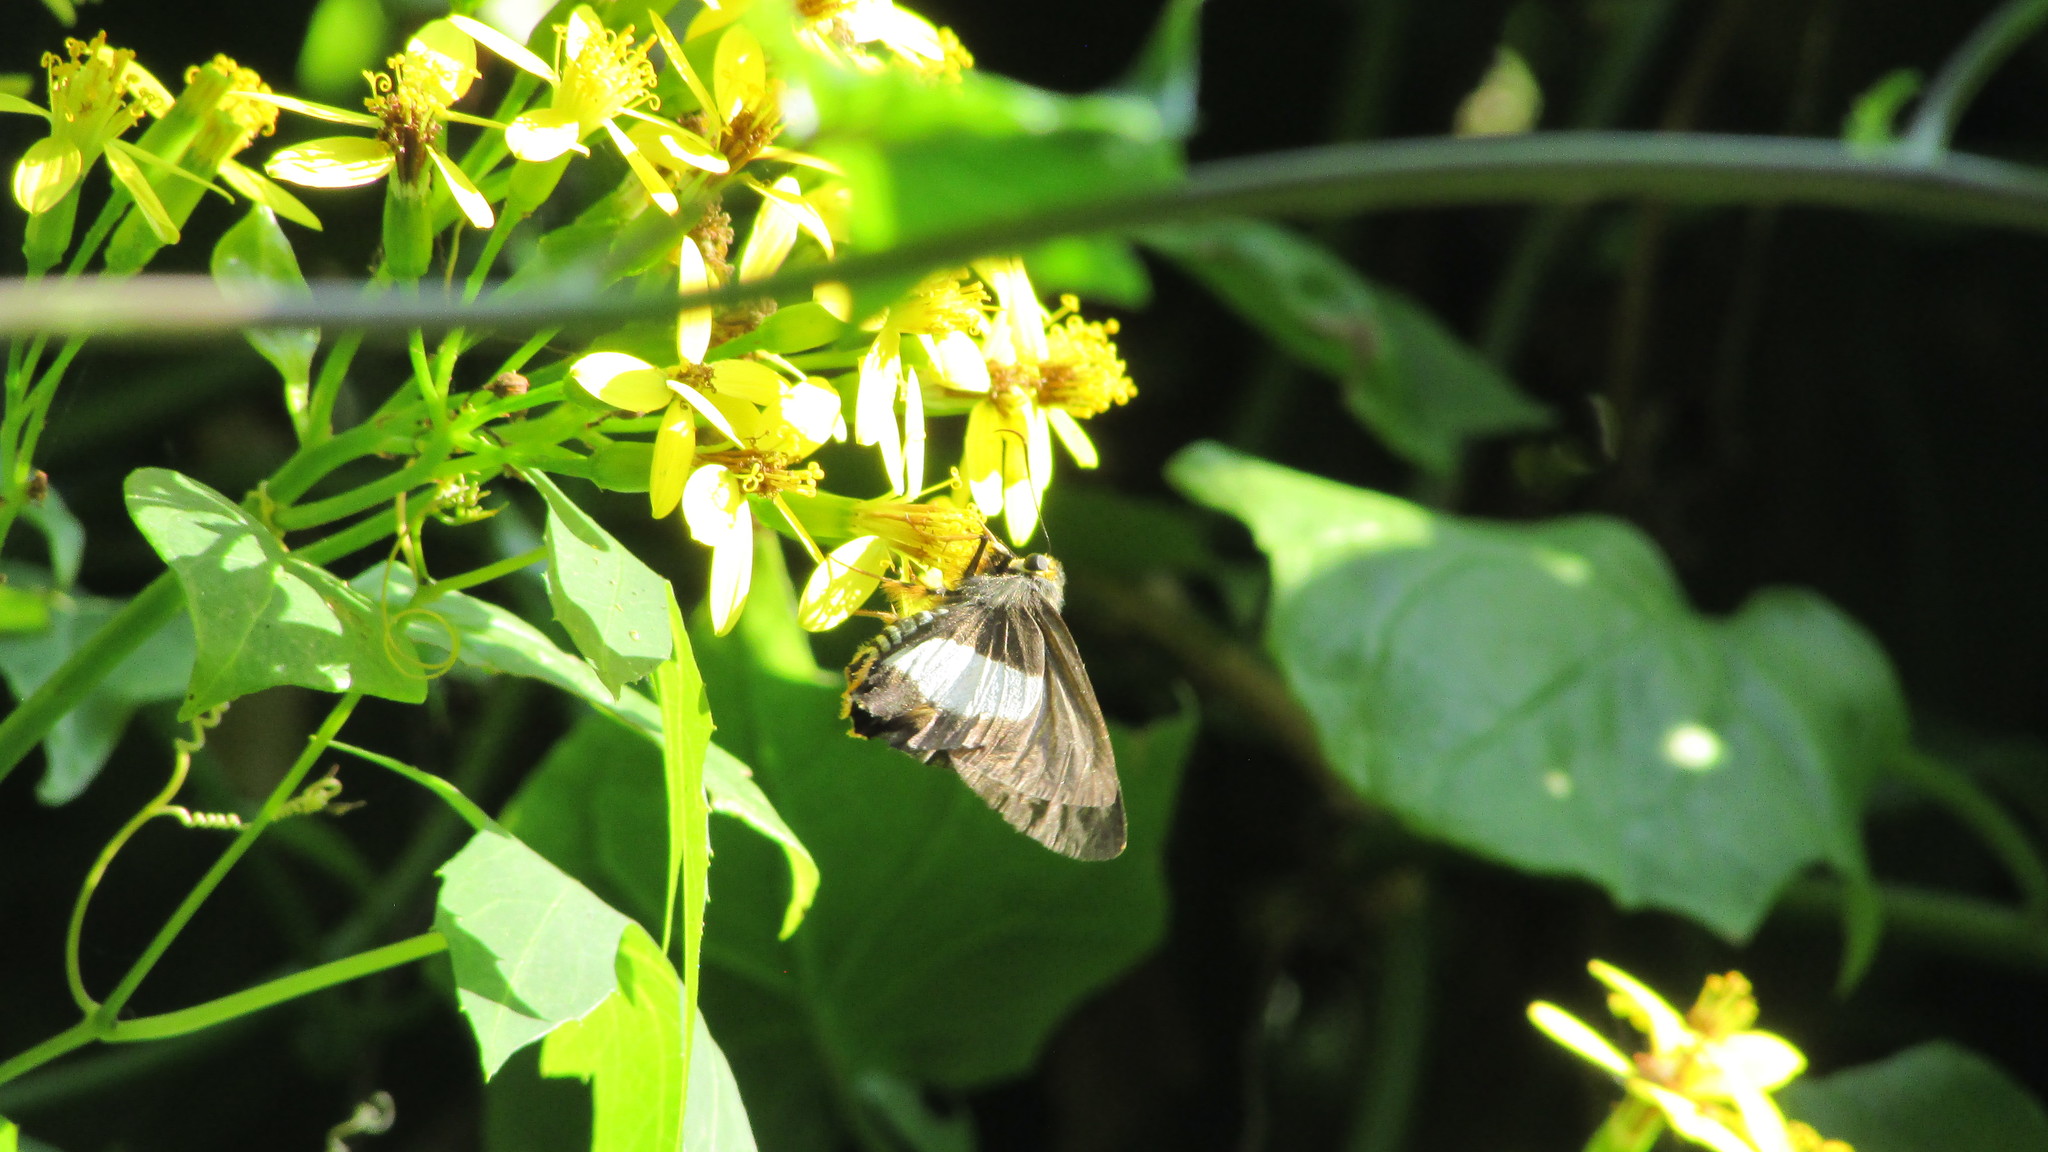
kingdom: Animalia
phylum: Arthropoda
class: Insecta
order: Lepidoptera
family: Hesperiidae
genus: Coeliades
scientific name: Coeliades forestan
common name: Striped policeman
